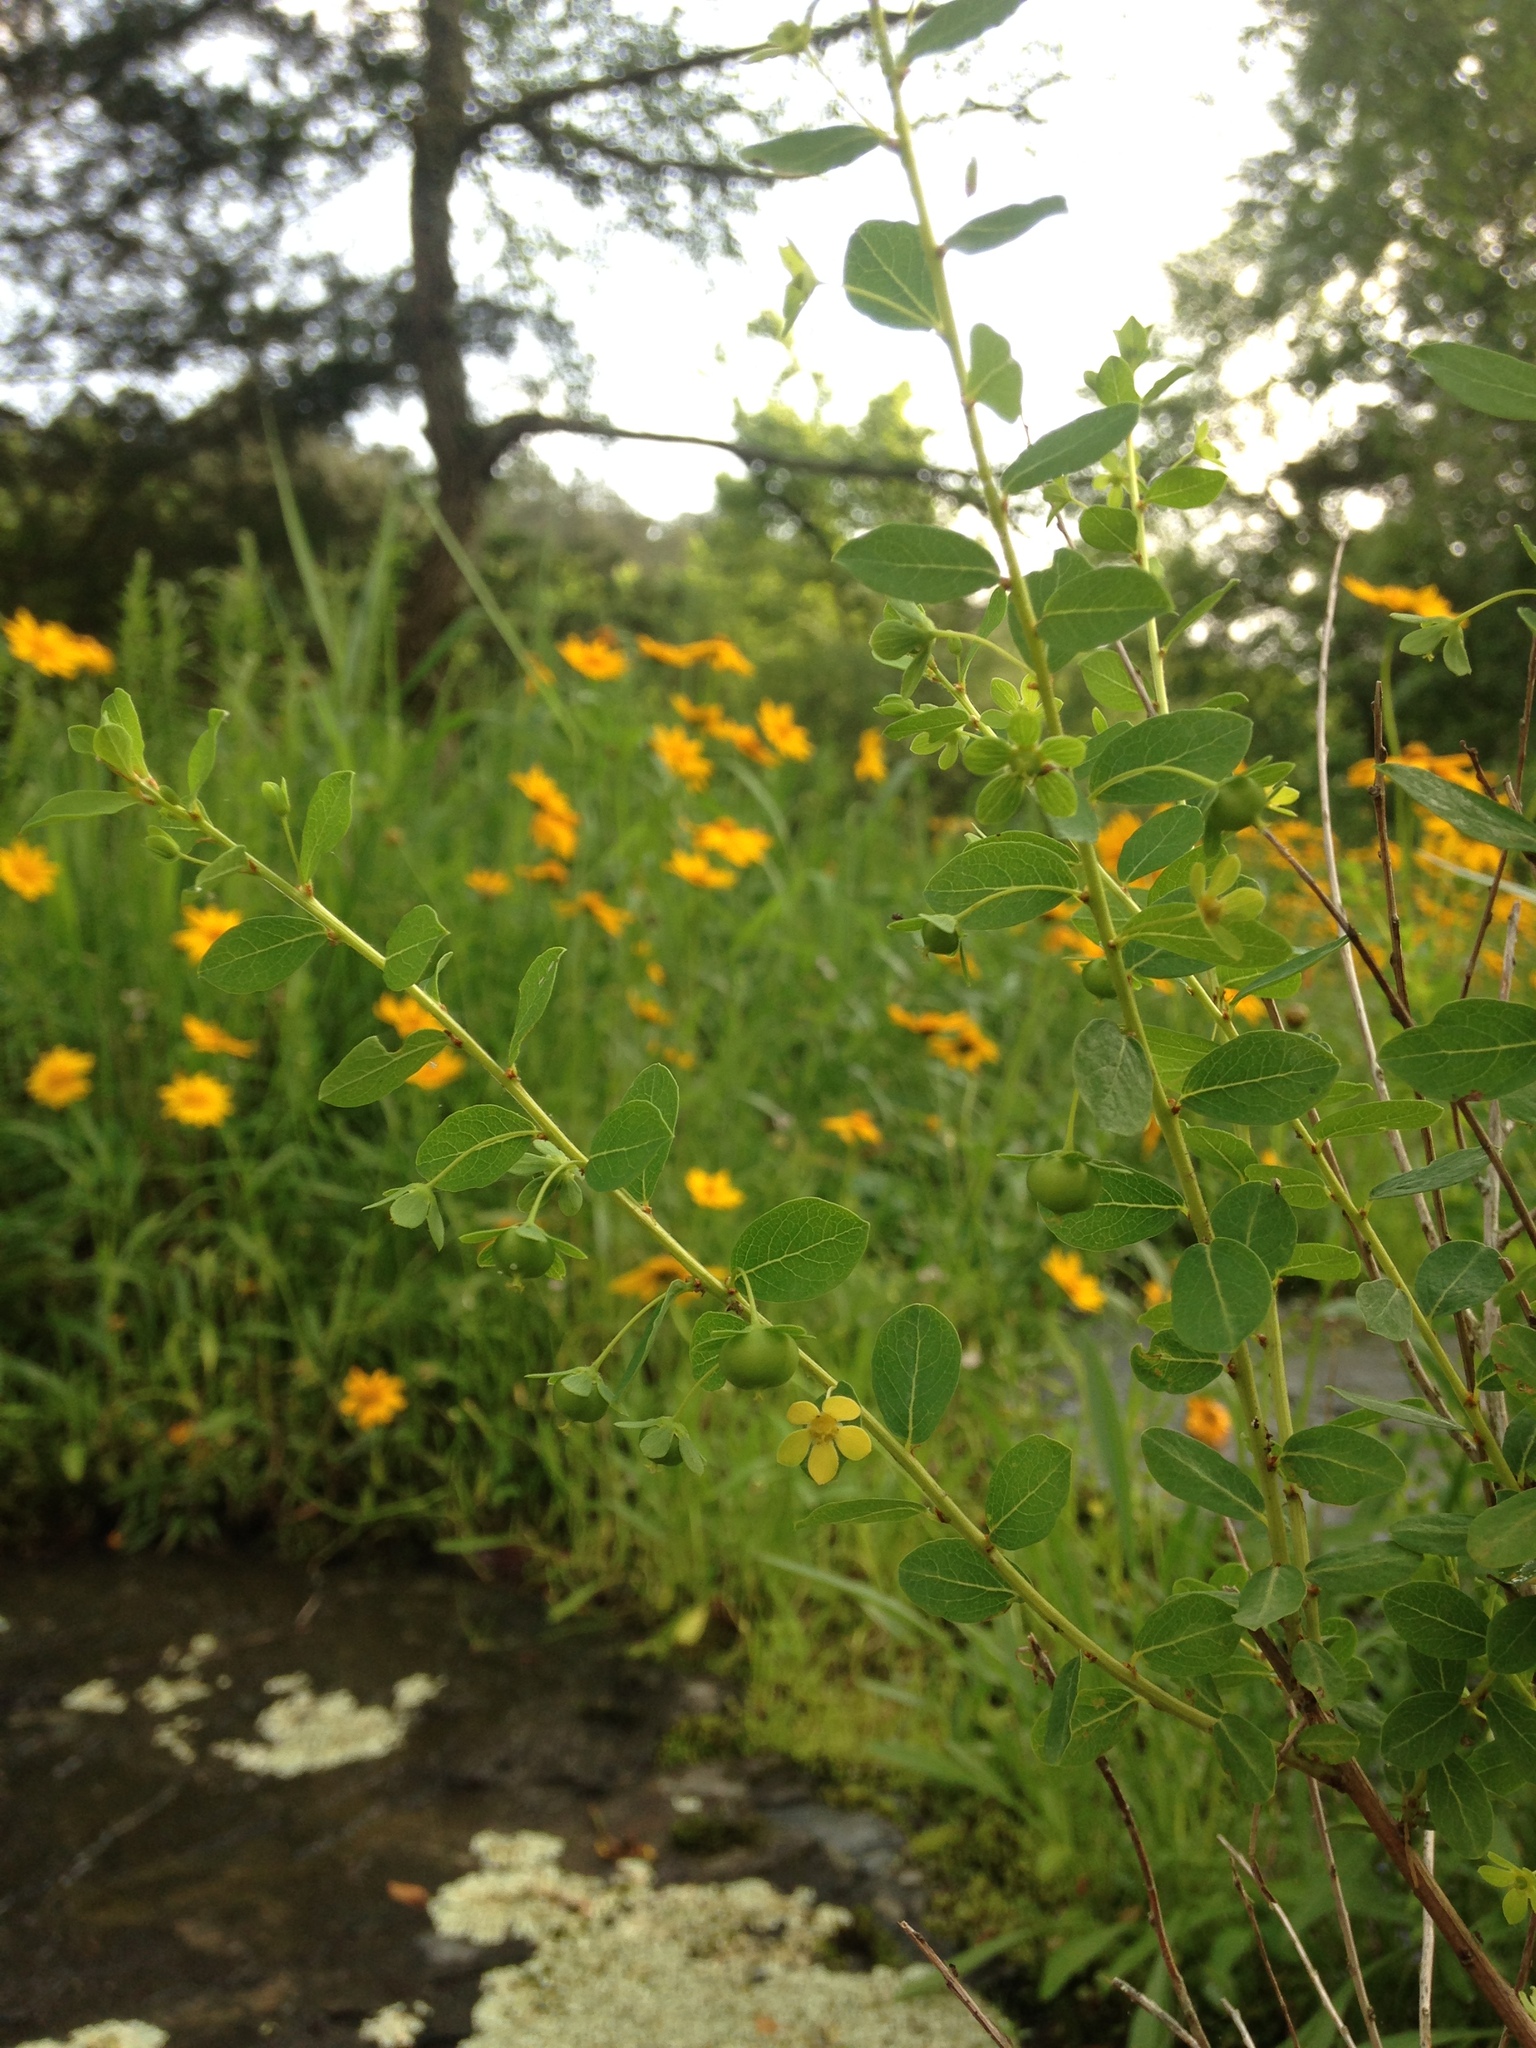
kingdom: Plantae
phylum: Tracheophyta
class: Magnoliopsida
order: Malpighiales
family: Phyllanthaceae
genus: Phyllanthopsis
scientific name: Phyllanthopsis phyllanthoides
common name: Missouri maidenbush
